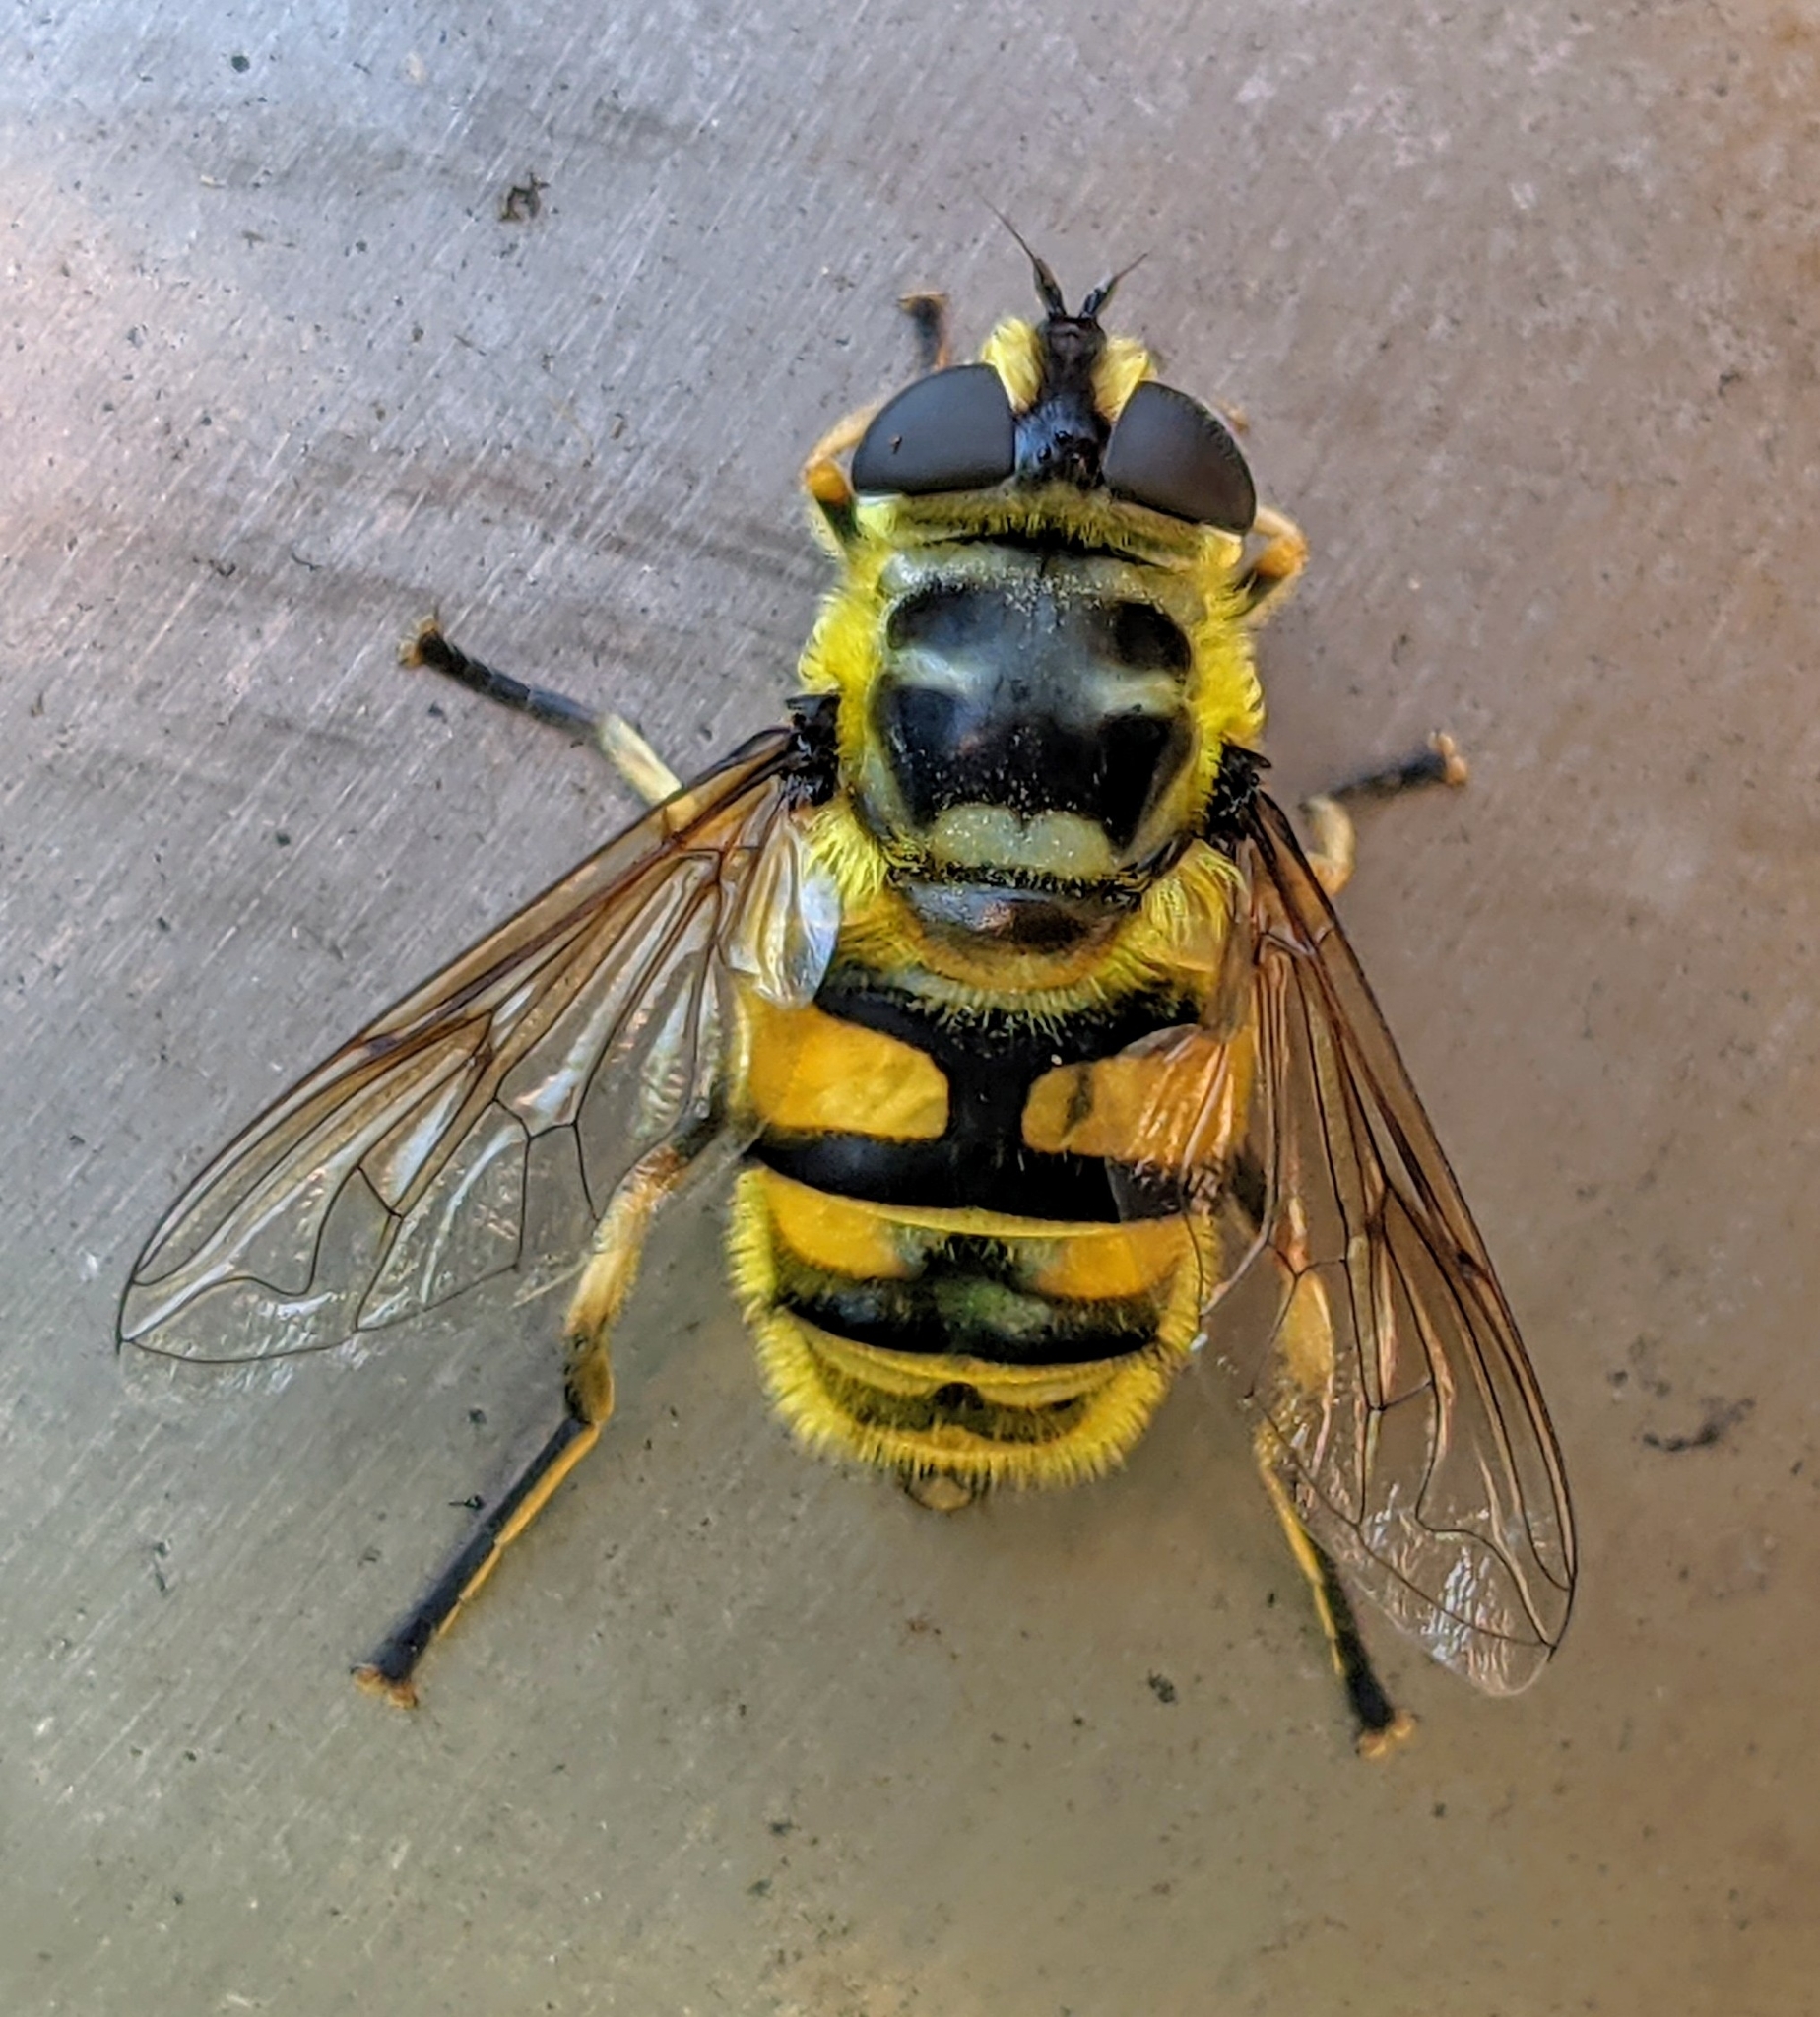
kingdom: Animalia
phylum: Arthropoda
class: Insecta
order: Diptera
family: Syrphidae
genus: Myathropa
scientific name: Myathropa florea
